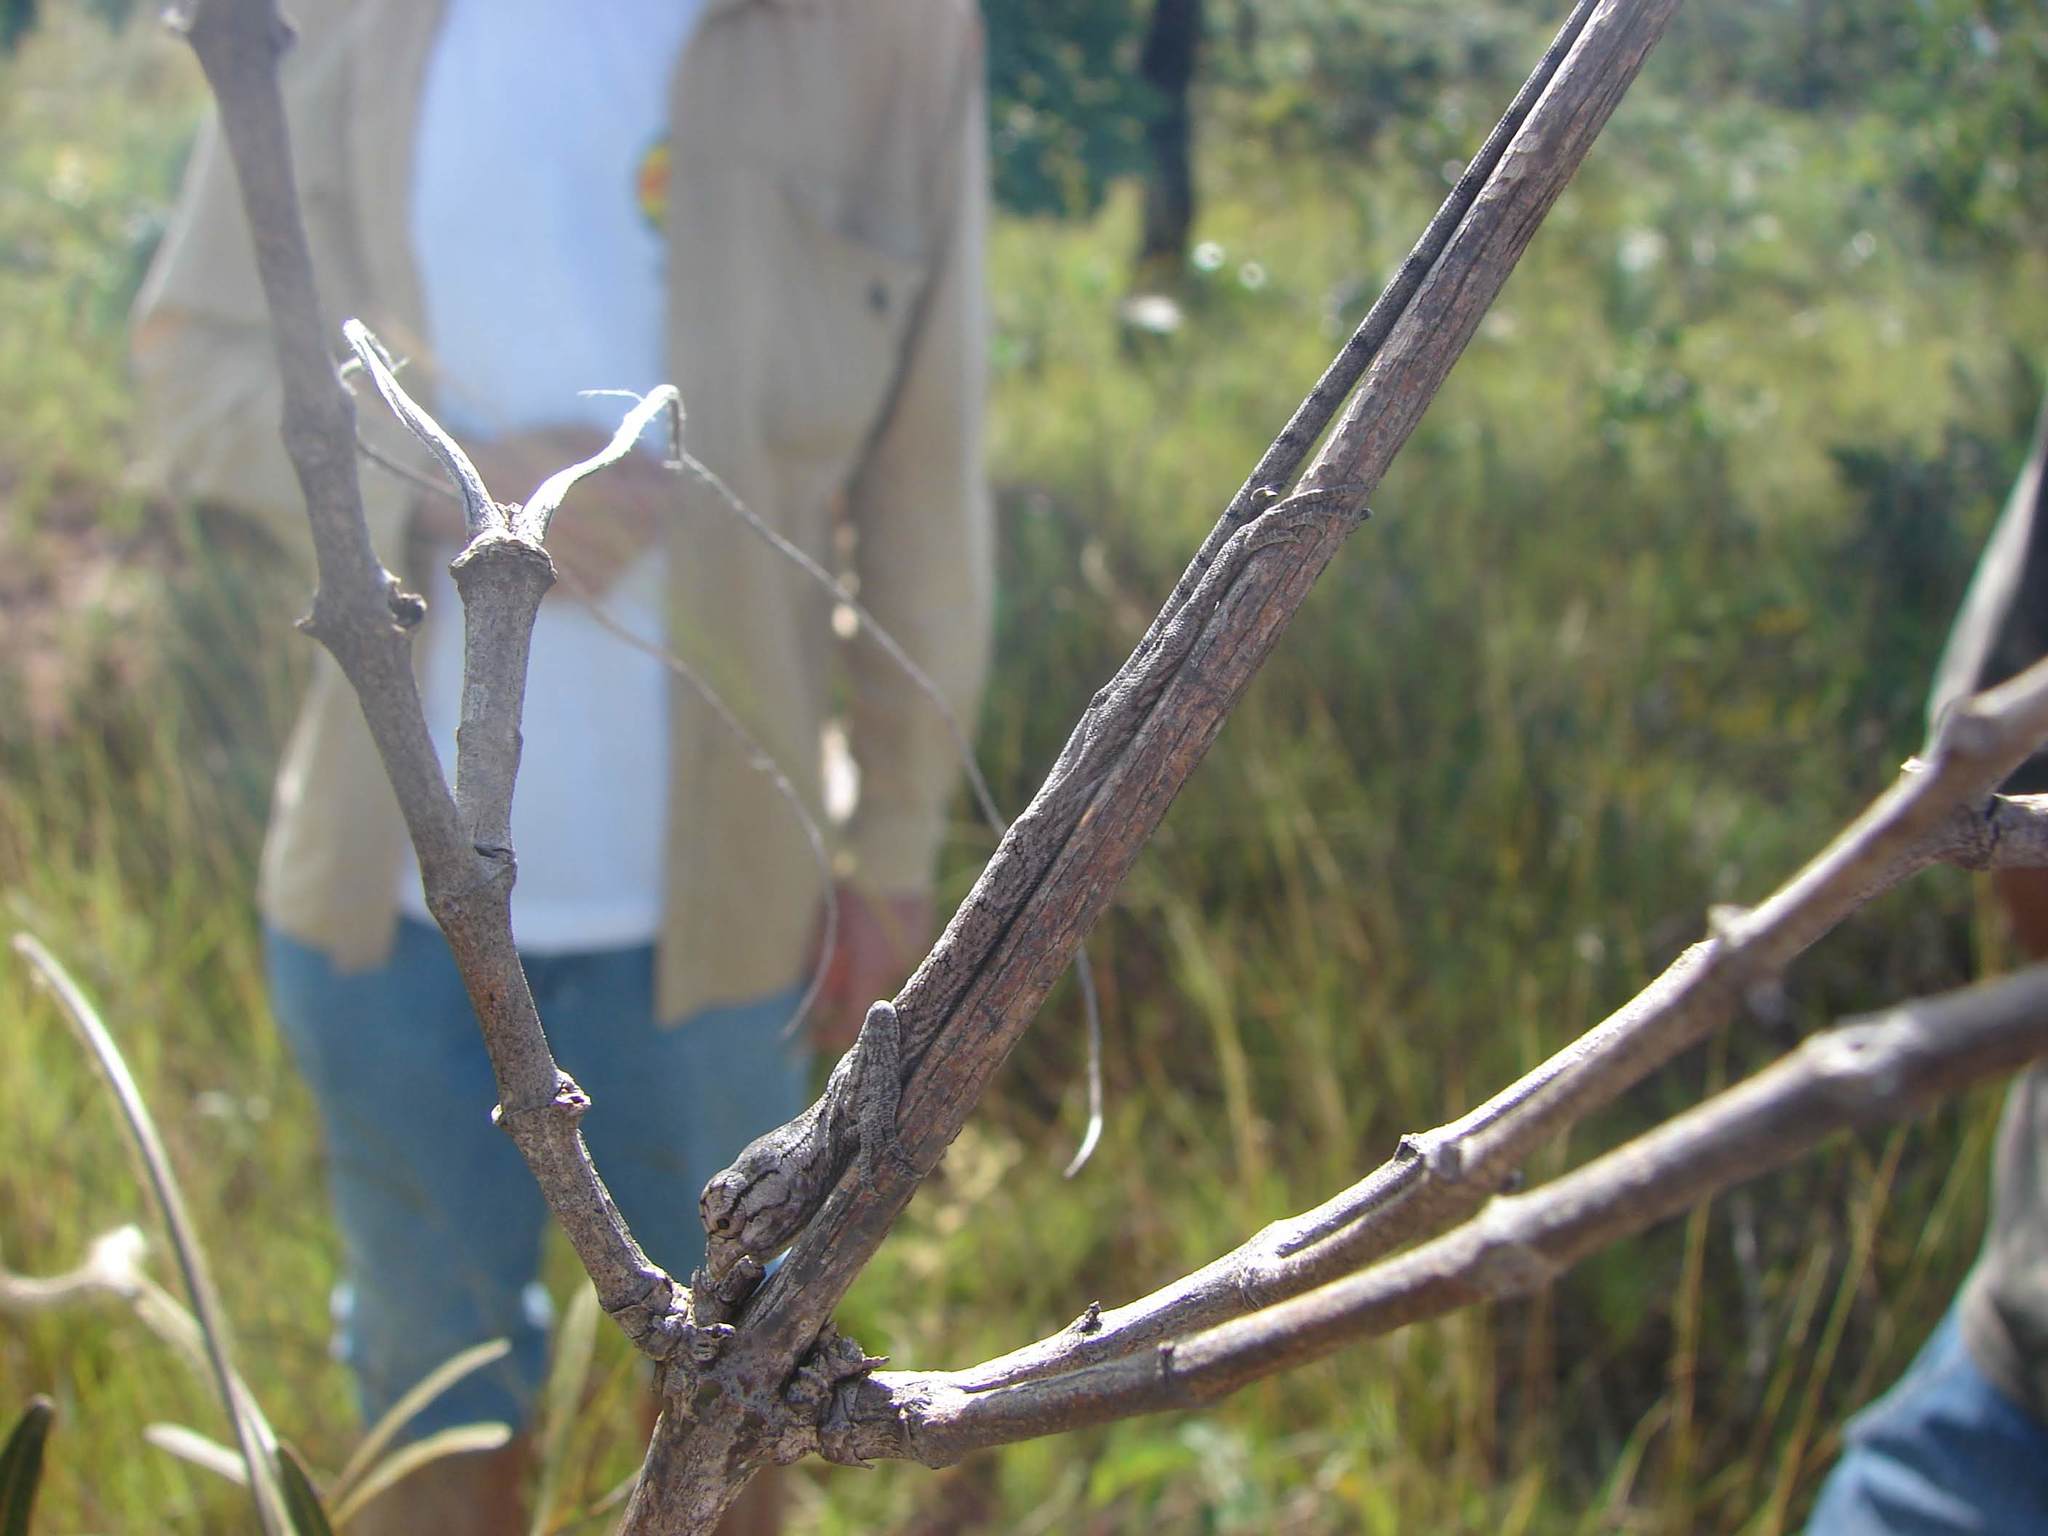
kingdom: Animalia
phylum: Chordata
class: Squamata
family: Polychrotidae
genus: Polychrus
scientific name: Polychrus acutirostris
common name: Brazilian bush anole
